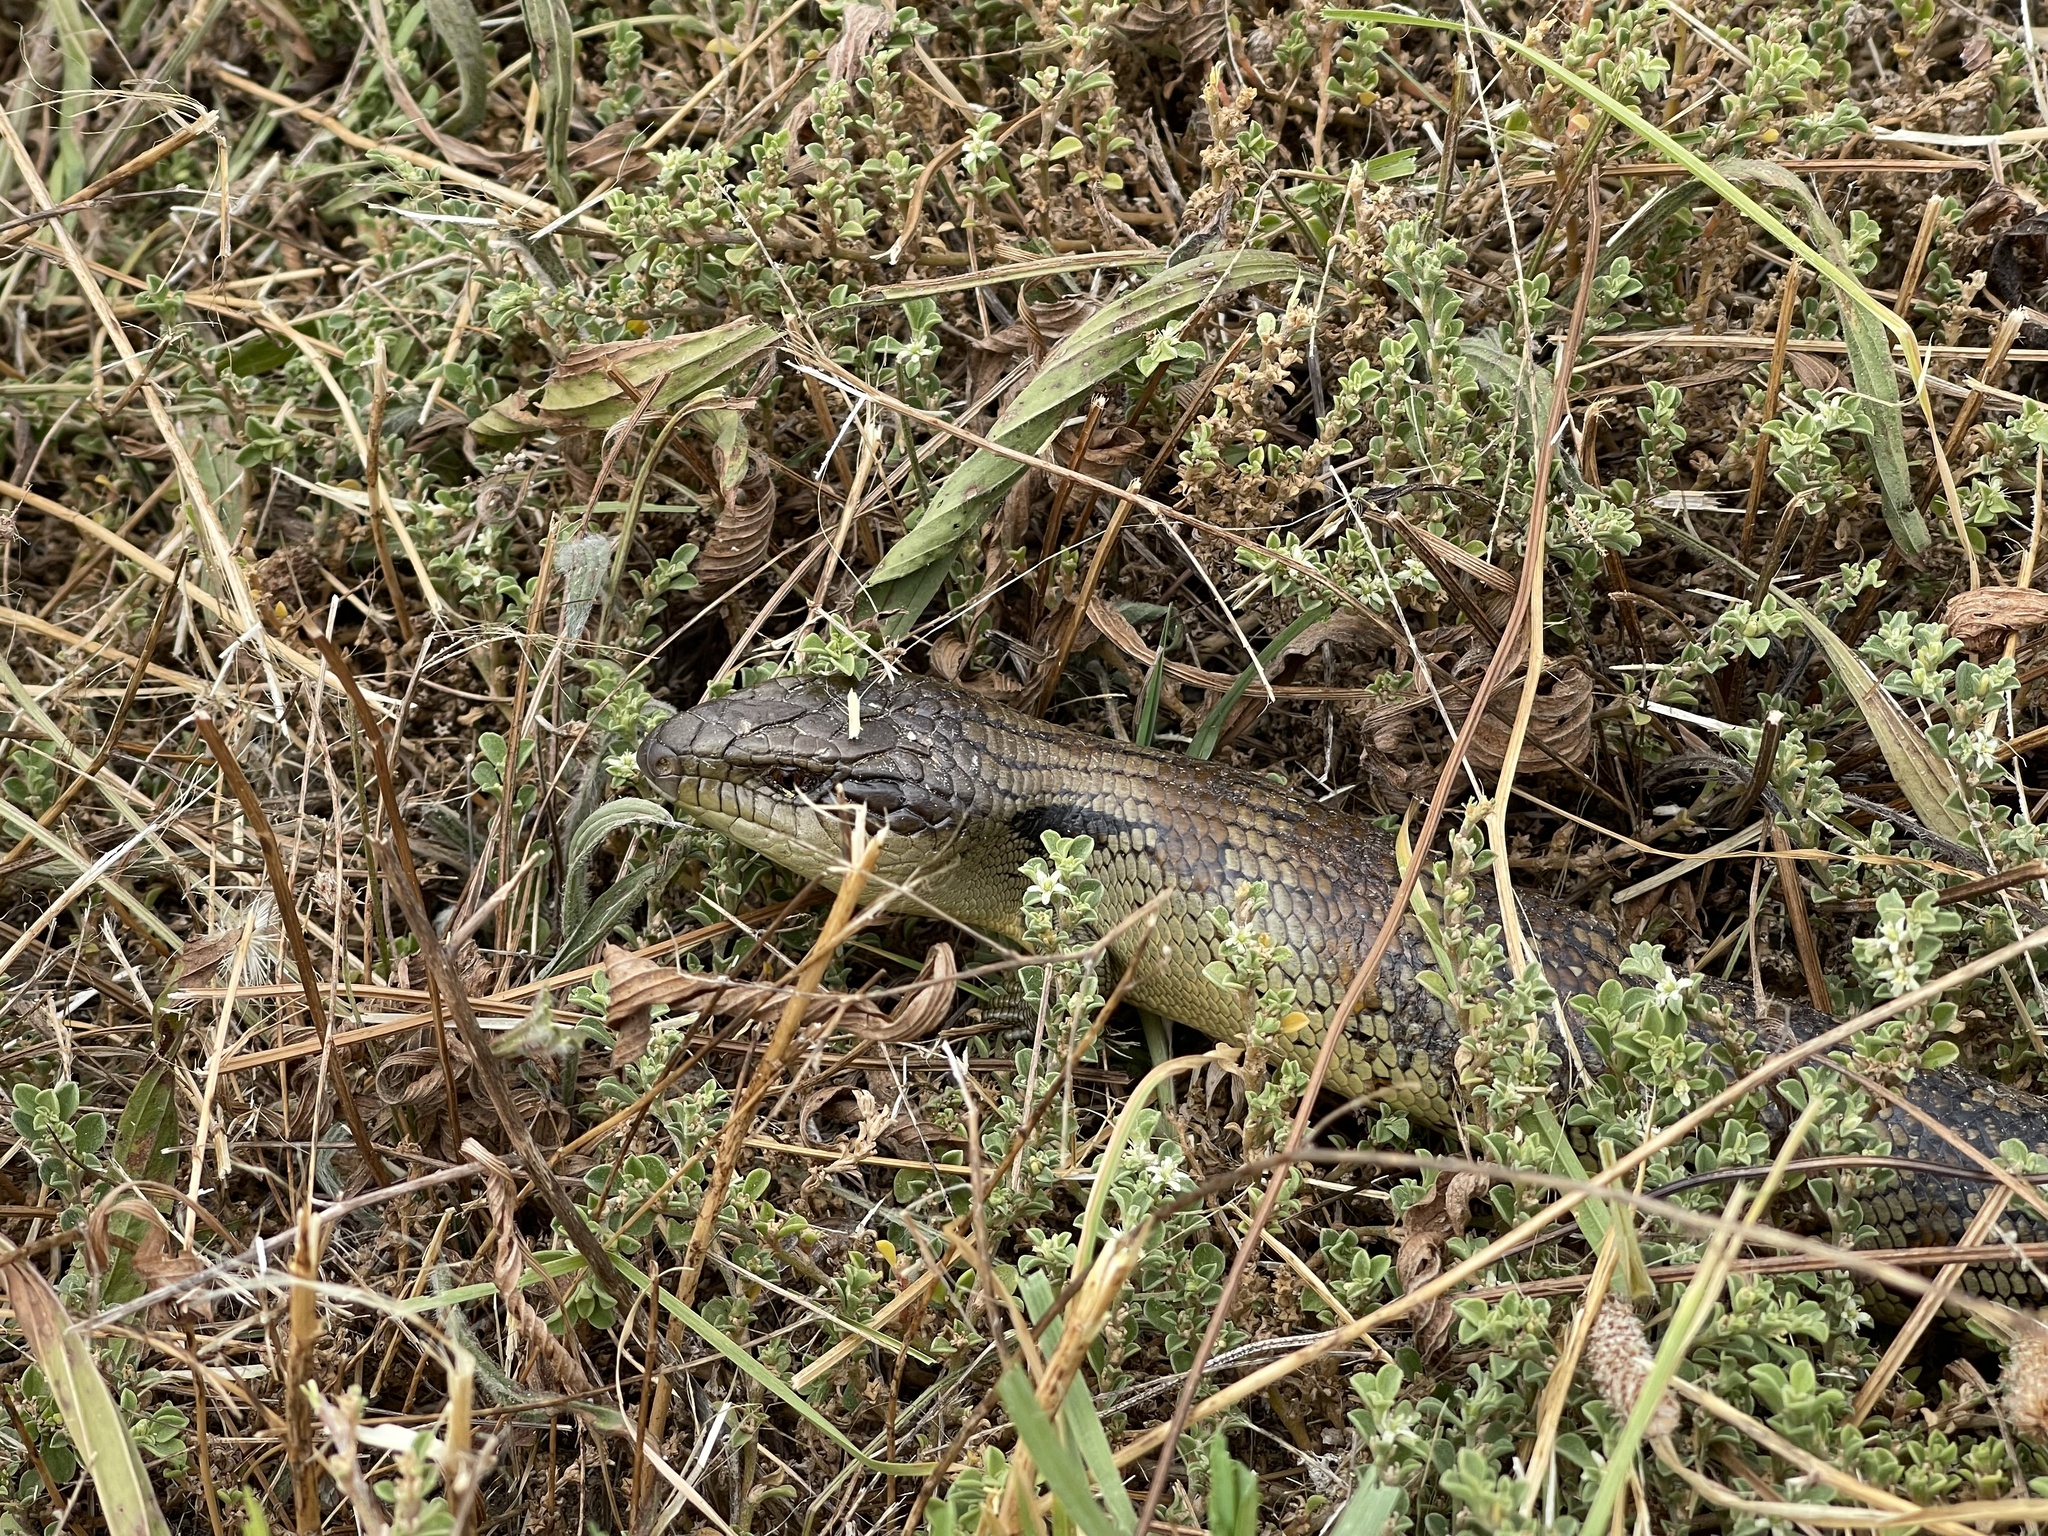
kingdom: Animalia
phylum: Chordata
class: Squamata
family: Scincidae
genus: Tiliqua
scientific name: Tiliqua scincoides
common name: Common bluetongue
